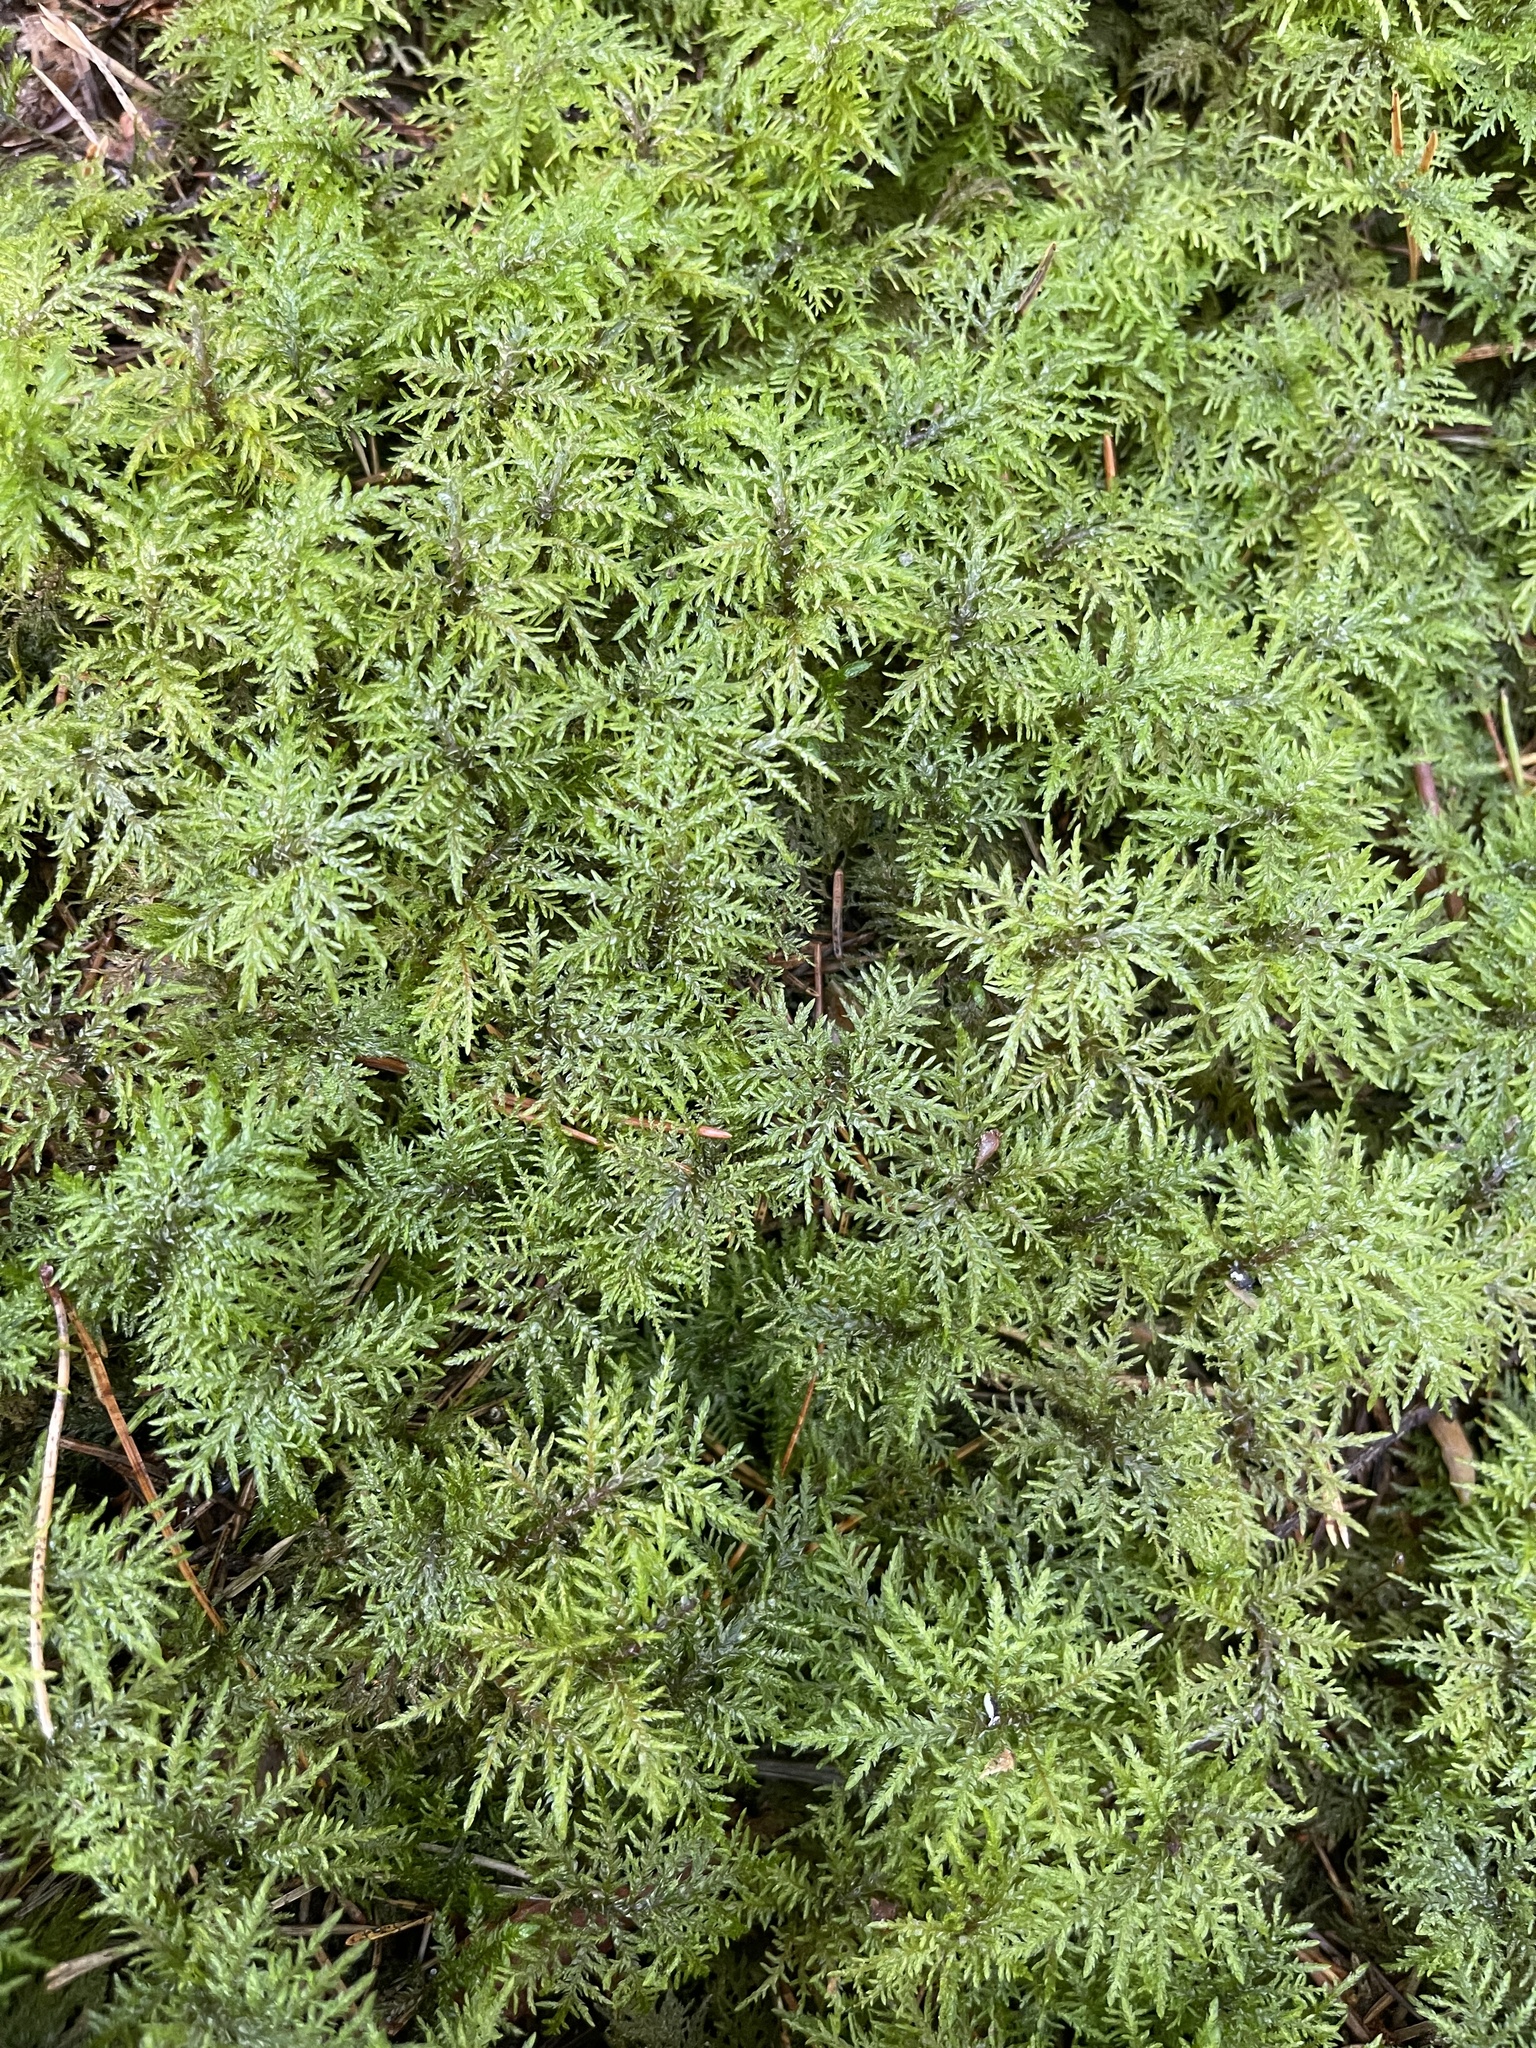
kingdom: Plantae
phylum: Bryophyta
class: Bryopsida
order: Hypnales
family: Hylocomiaceae
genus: Hylocomium
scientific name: Hylocomium splendens
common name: Stairstep moss
